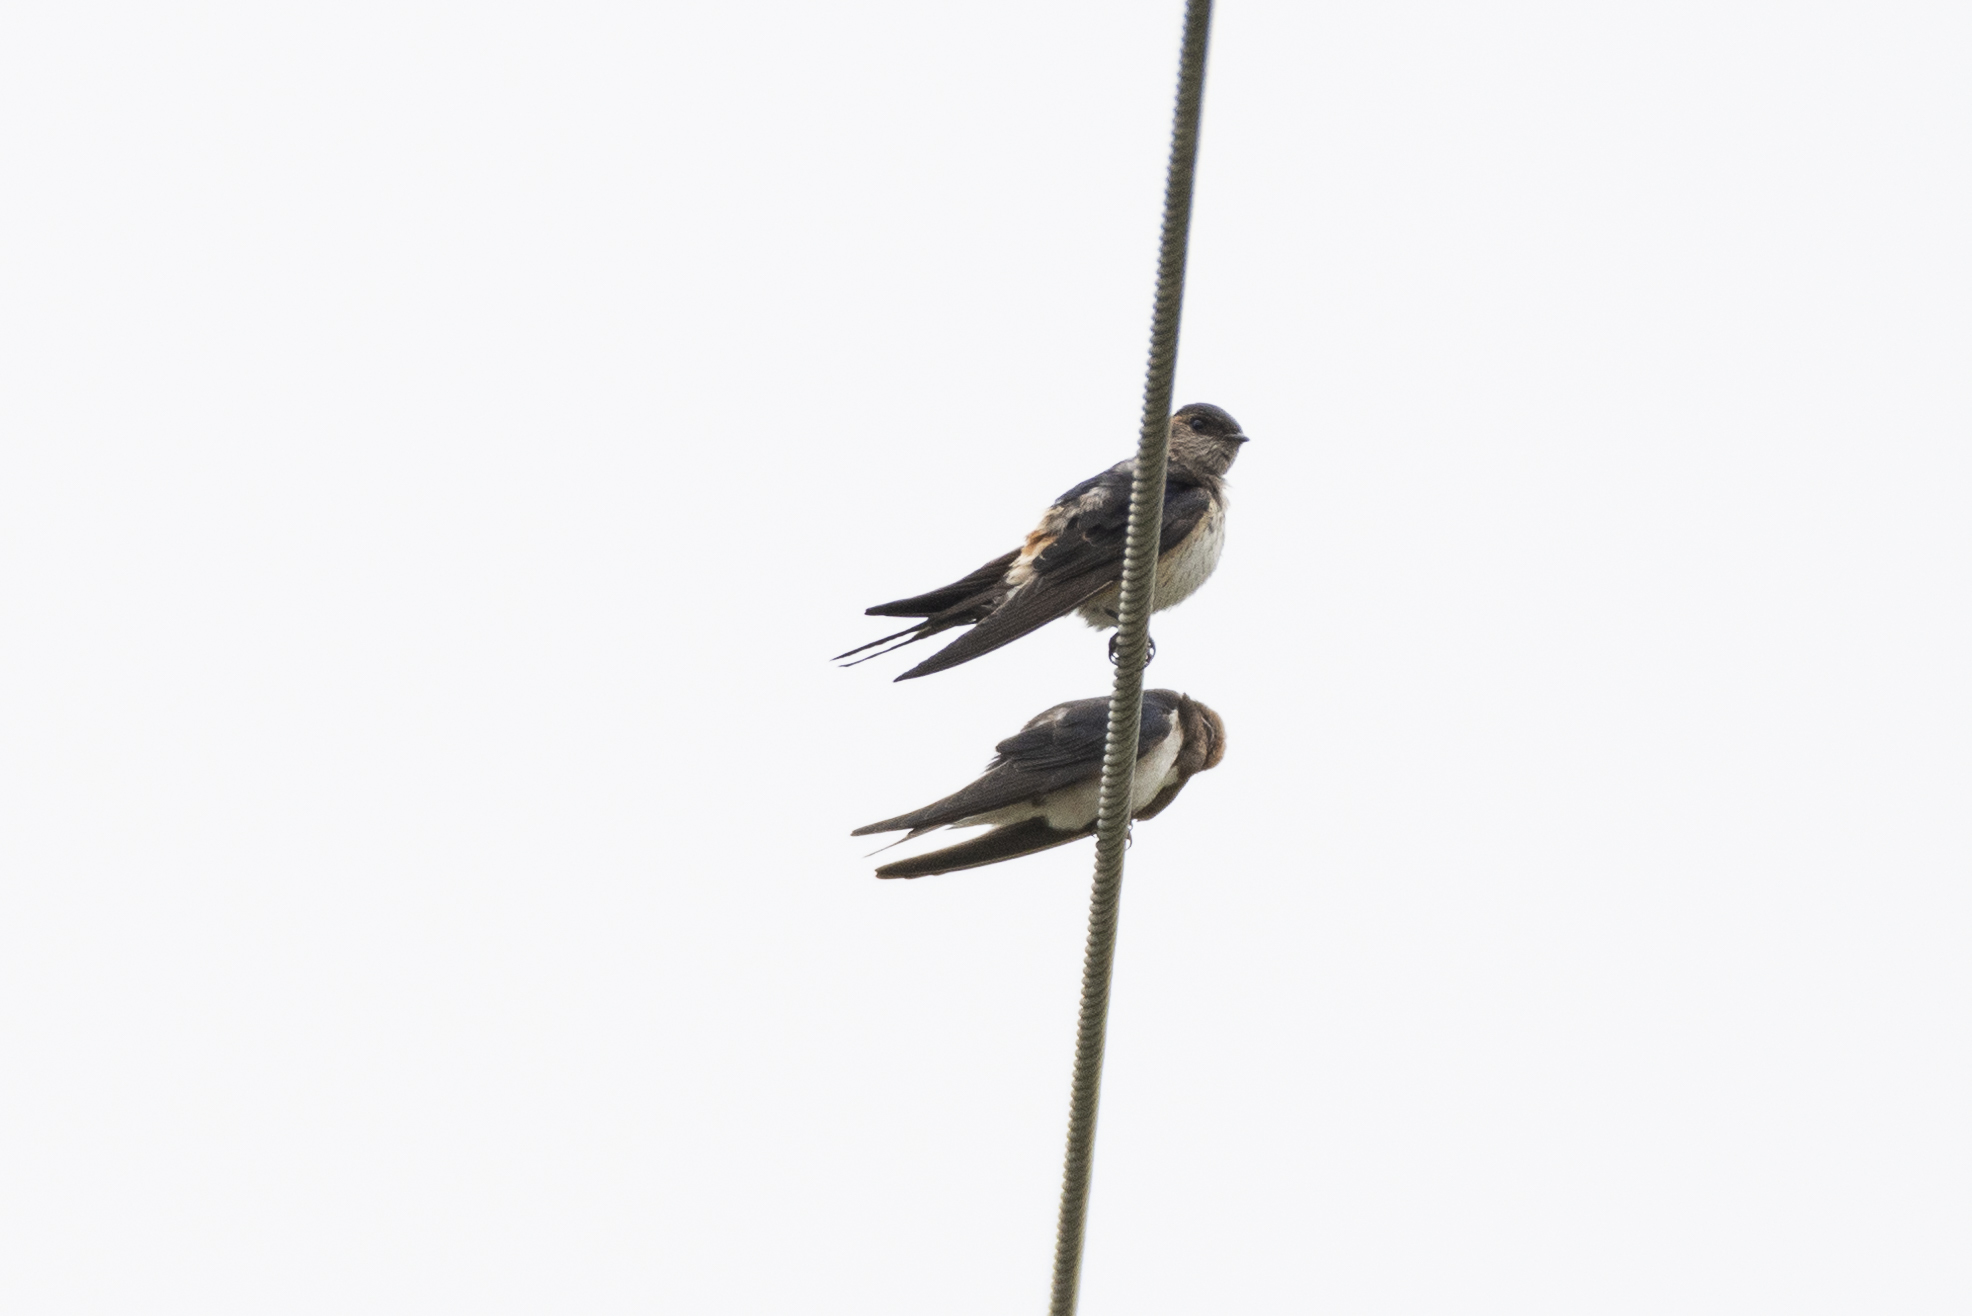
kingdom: Animalia
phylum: Chordata
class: Aves
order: Passeriformes
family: Hirundinidae
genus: Cecropis
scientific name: Cecropis daurica
